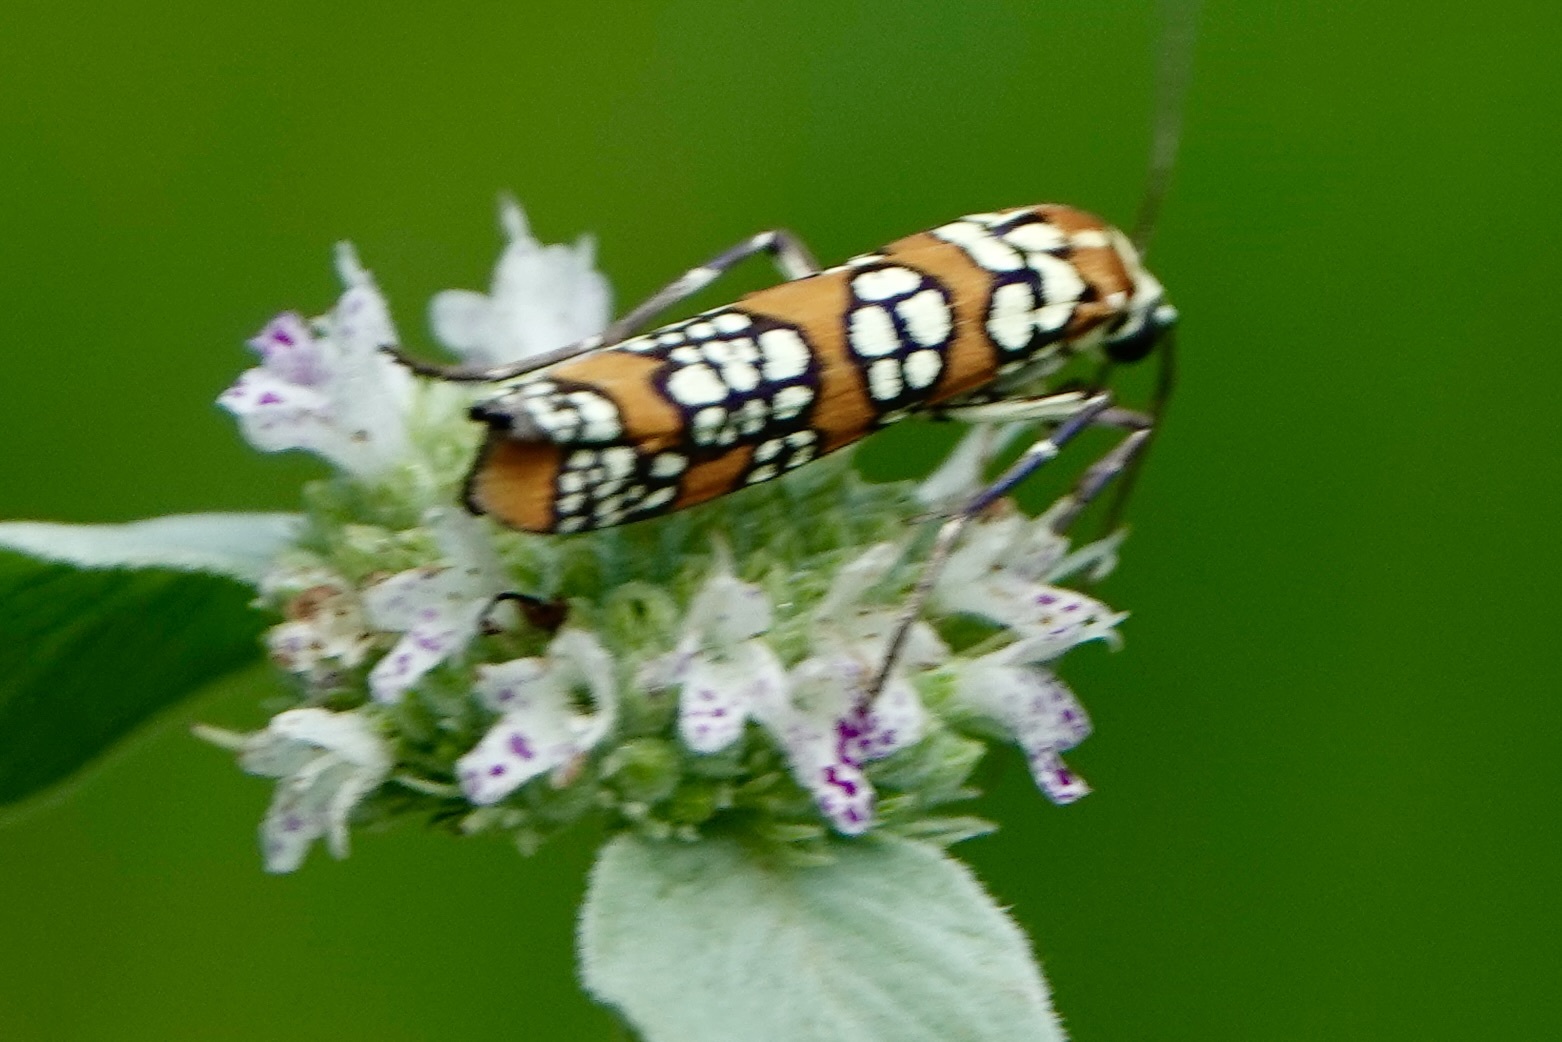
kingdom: Animalia
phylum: Arthropoda
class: Insecta
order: Lepidoptera
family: Attevidae
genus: Atteva
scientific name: Atteva punctella
